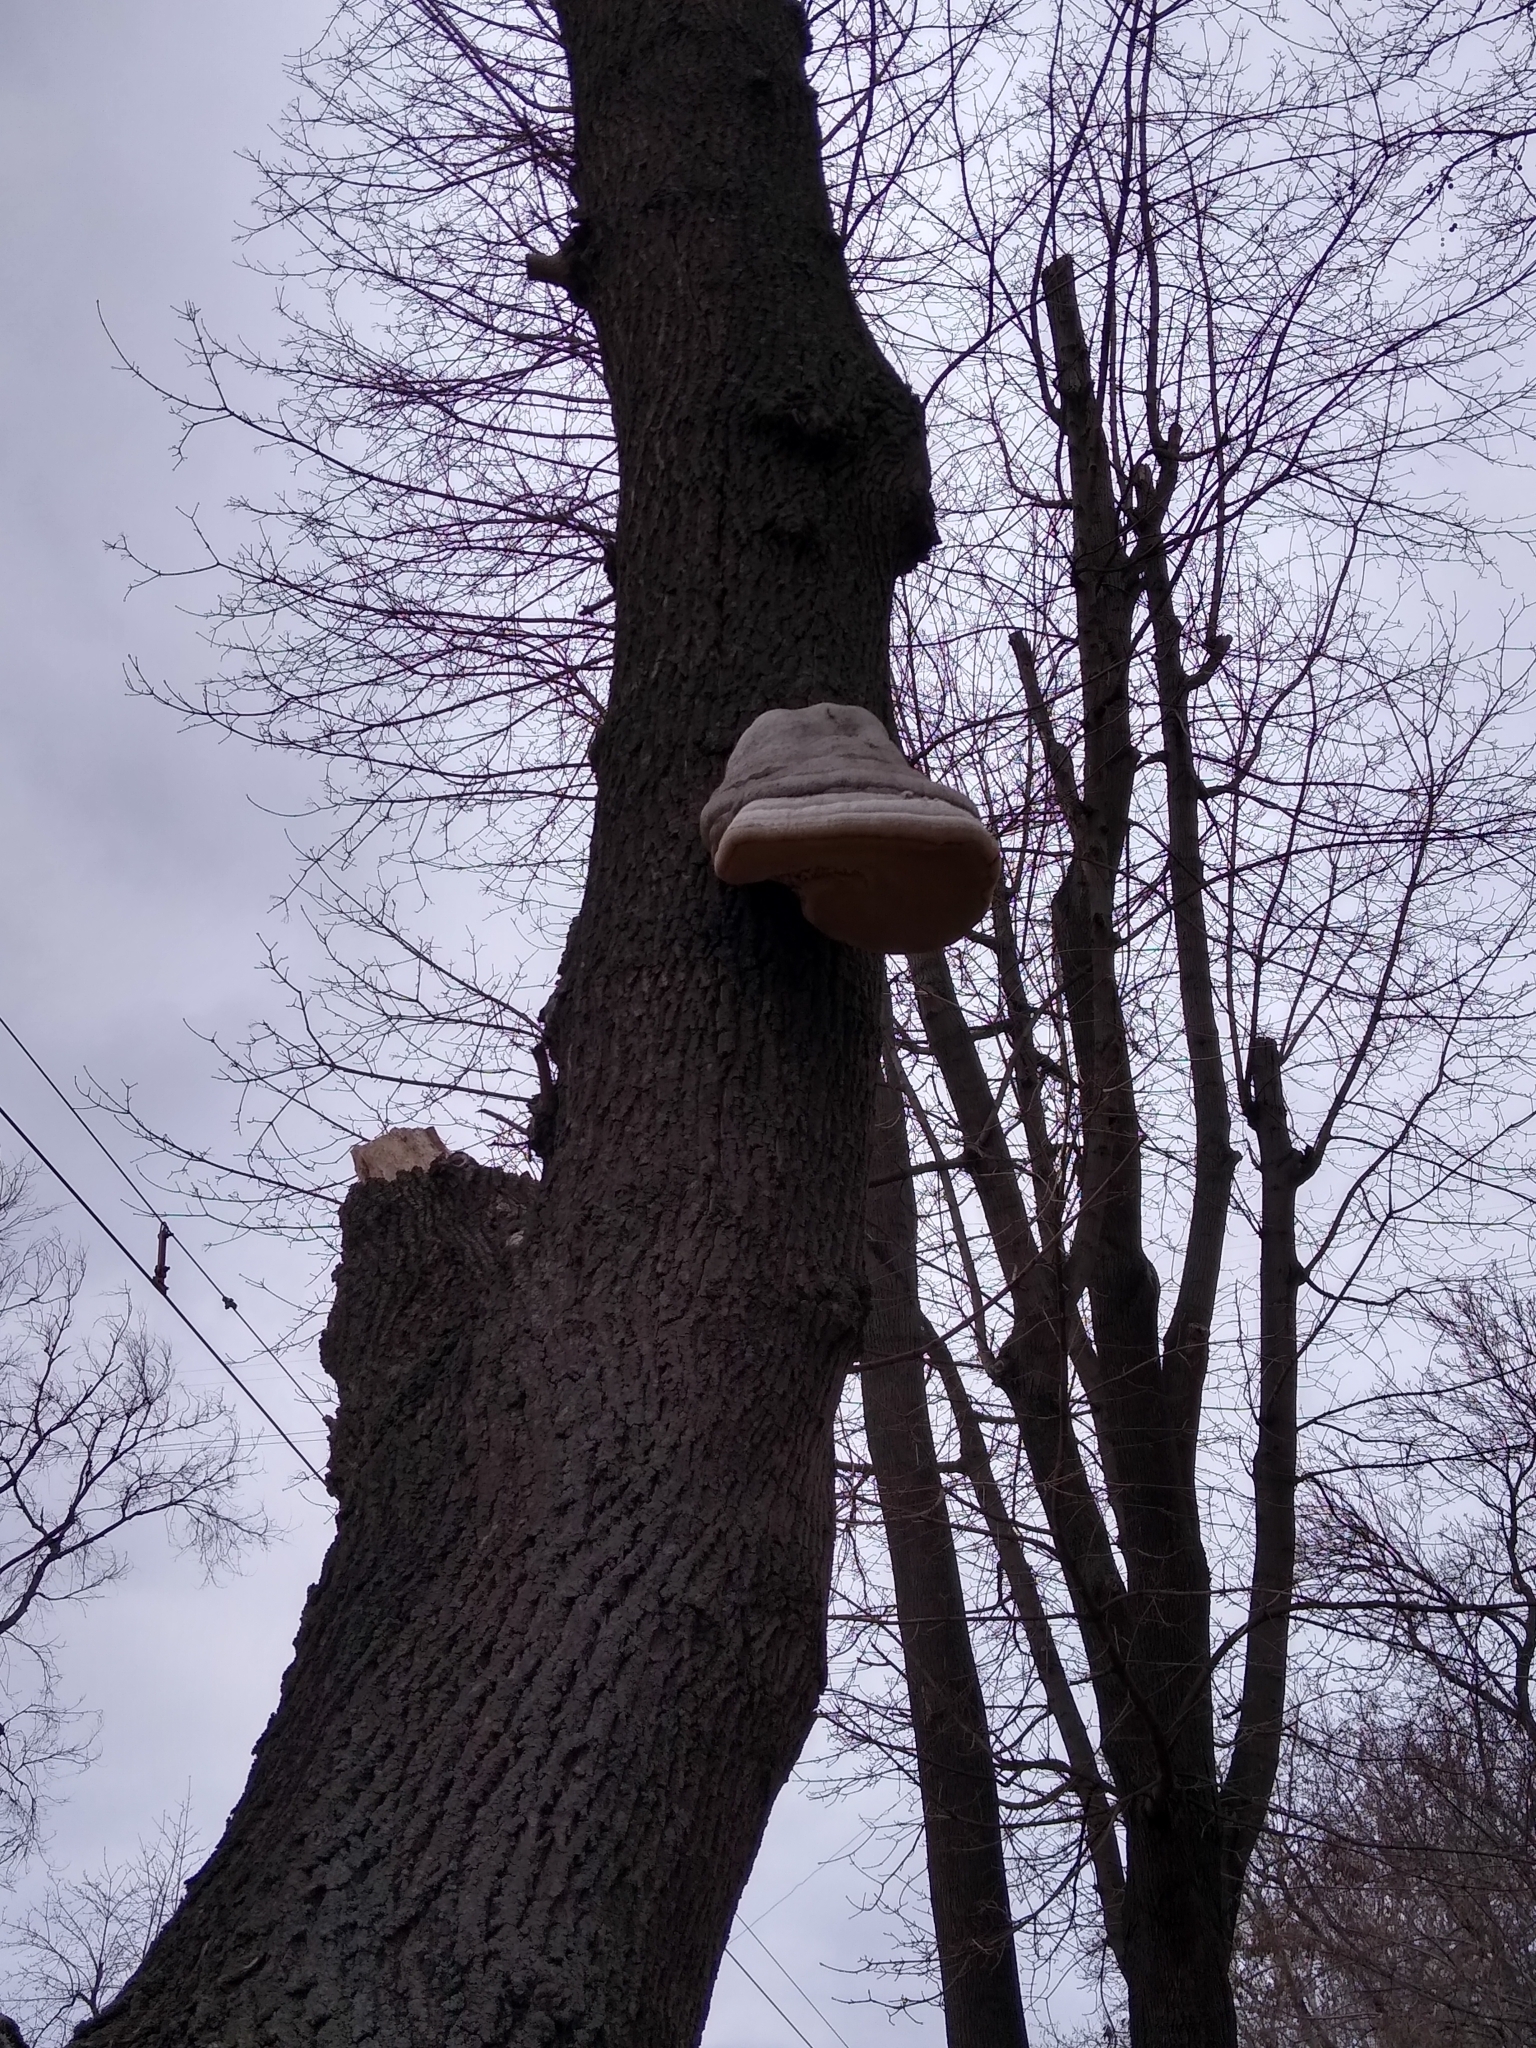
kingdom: Fungi
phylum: Basidiomycota
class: Agaricomycetes
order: Polyporales
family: Polyporaceae
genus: Fomes
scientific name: Fomes fomentarius
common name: Hoof fungus
